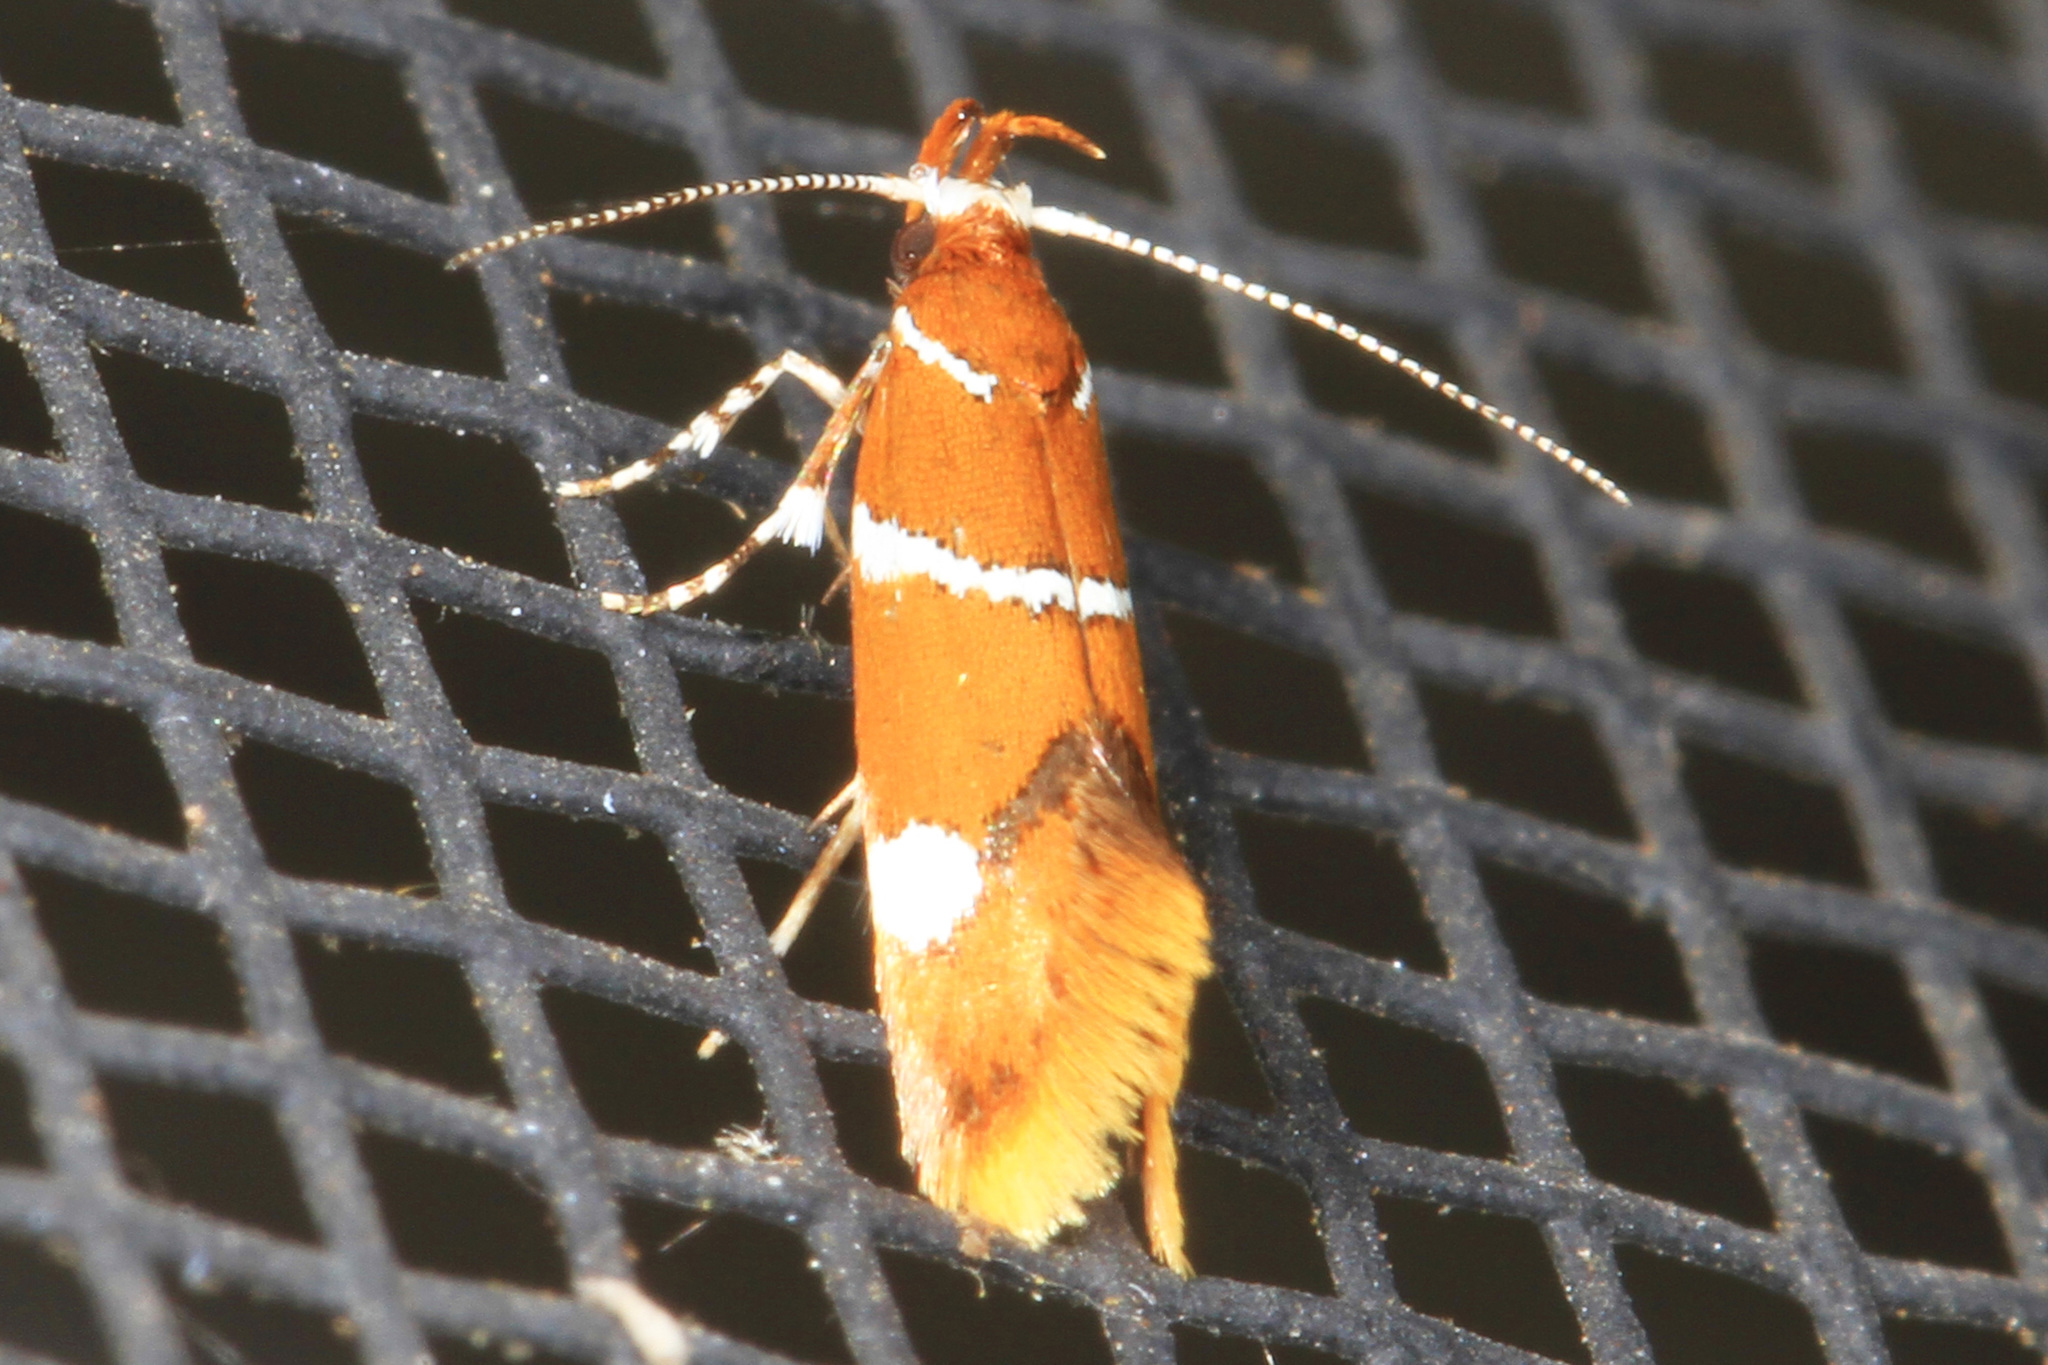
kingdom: Animalia
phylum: Arthropoda
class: Insecta
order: Lepidoptera
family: Oecophoridae
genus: Promalactis
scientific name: Promalactis suzukiella
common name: Moth
